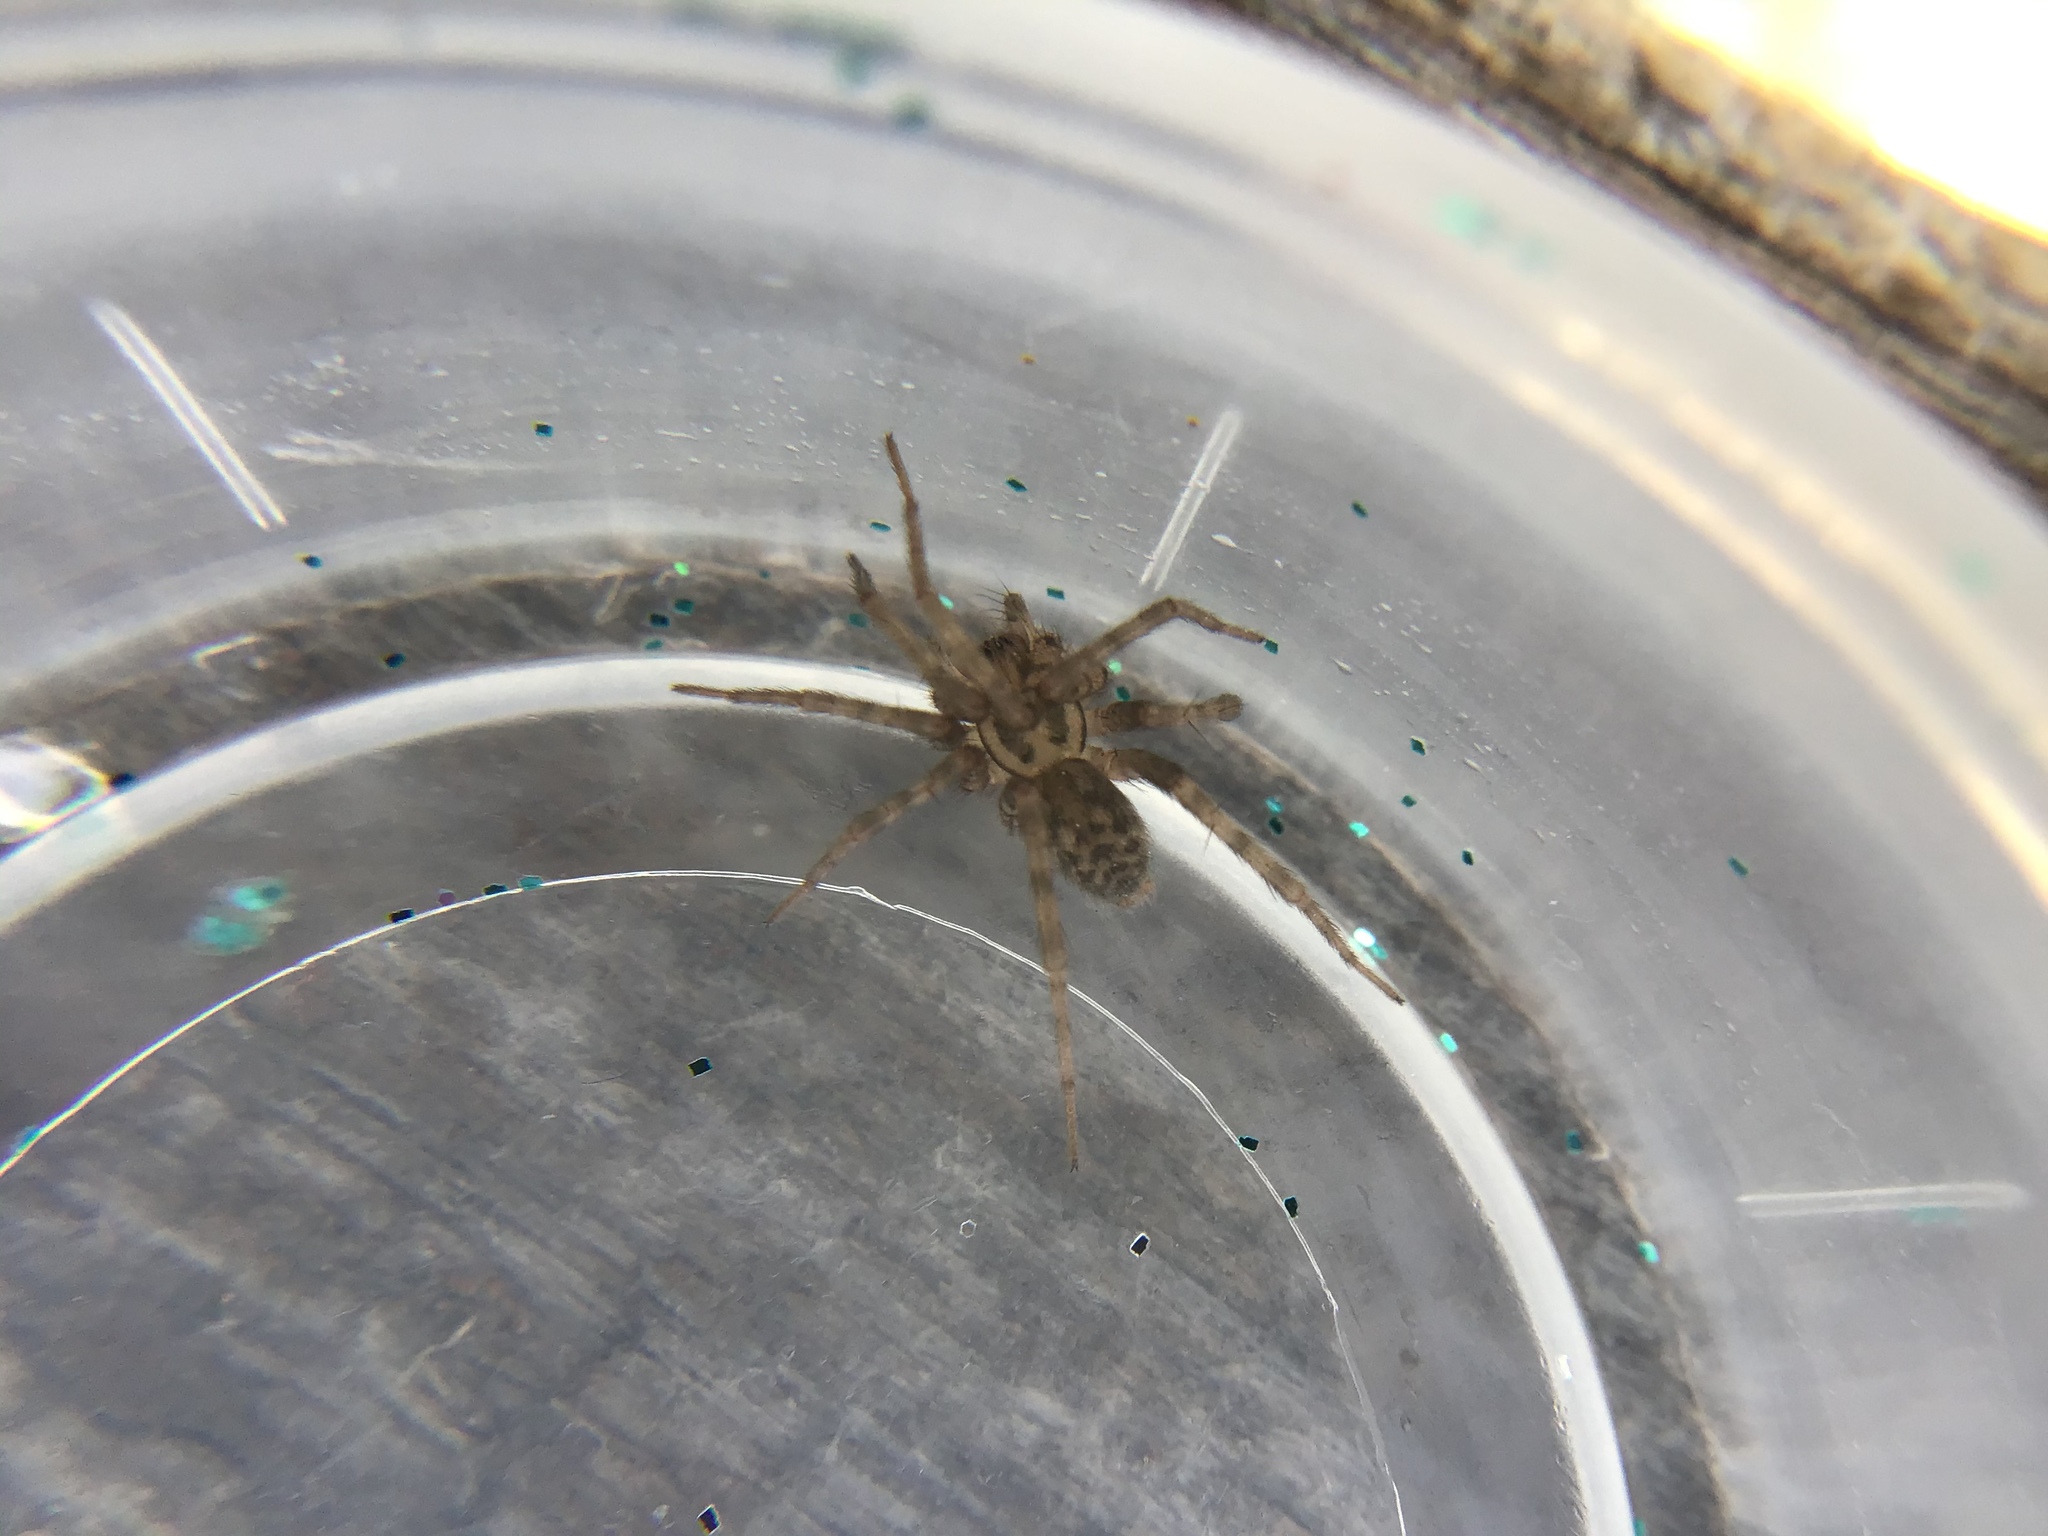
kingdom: Animalia
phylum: Arthropoda
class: Arachnida
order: Araneae
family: Agelenidae
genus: Tegenaria
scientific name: Tegenaria domestica
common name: Barn funnel weaver
